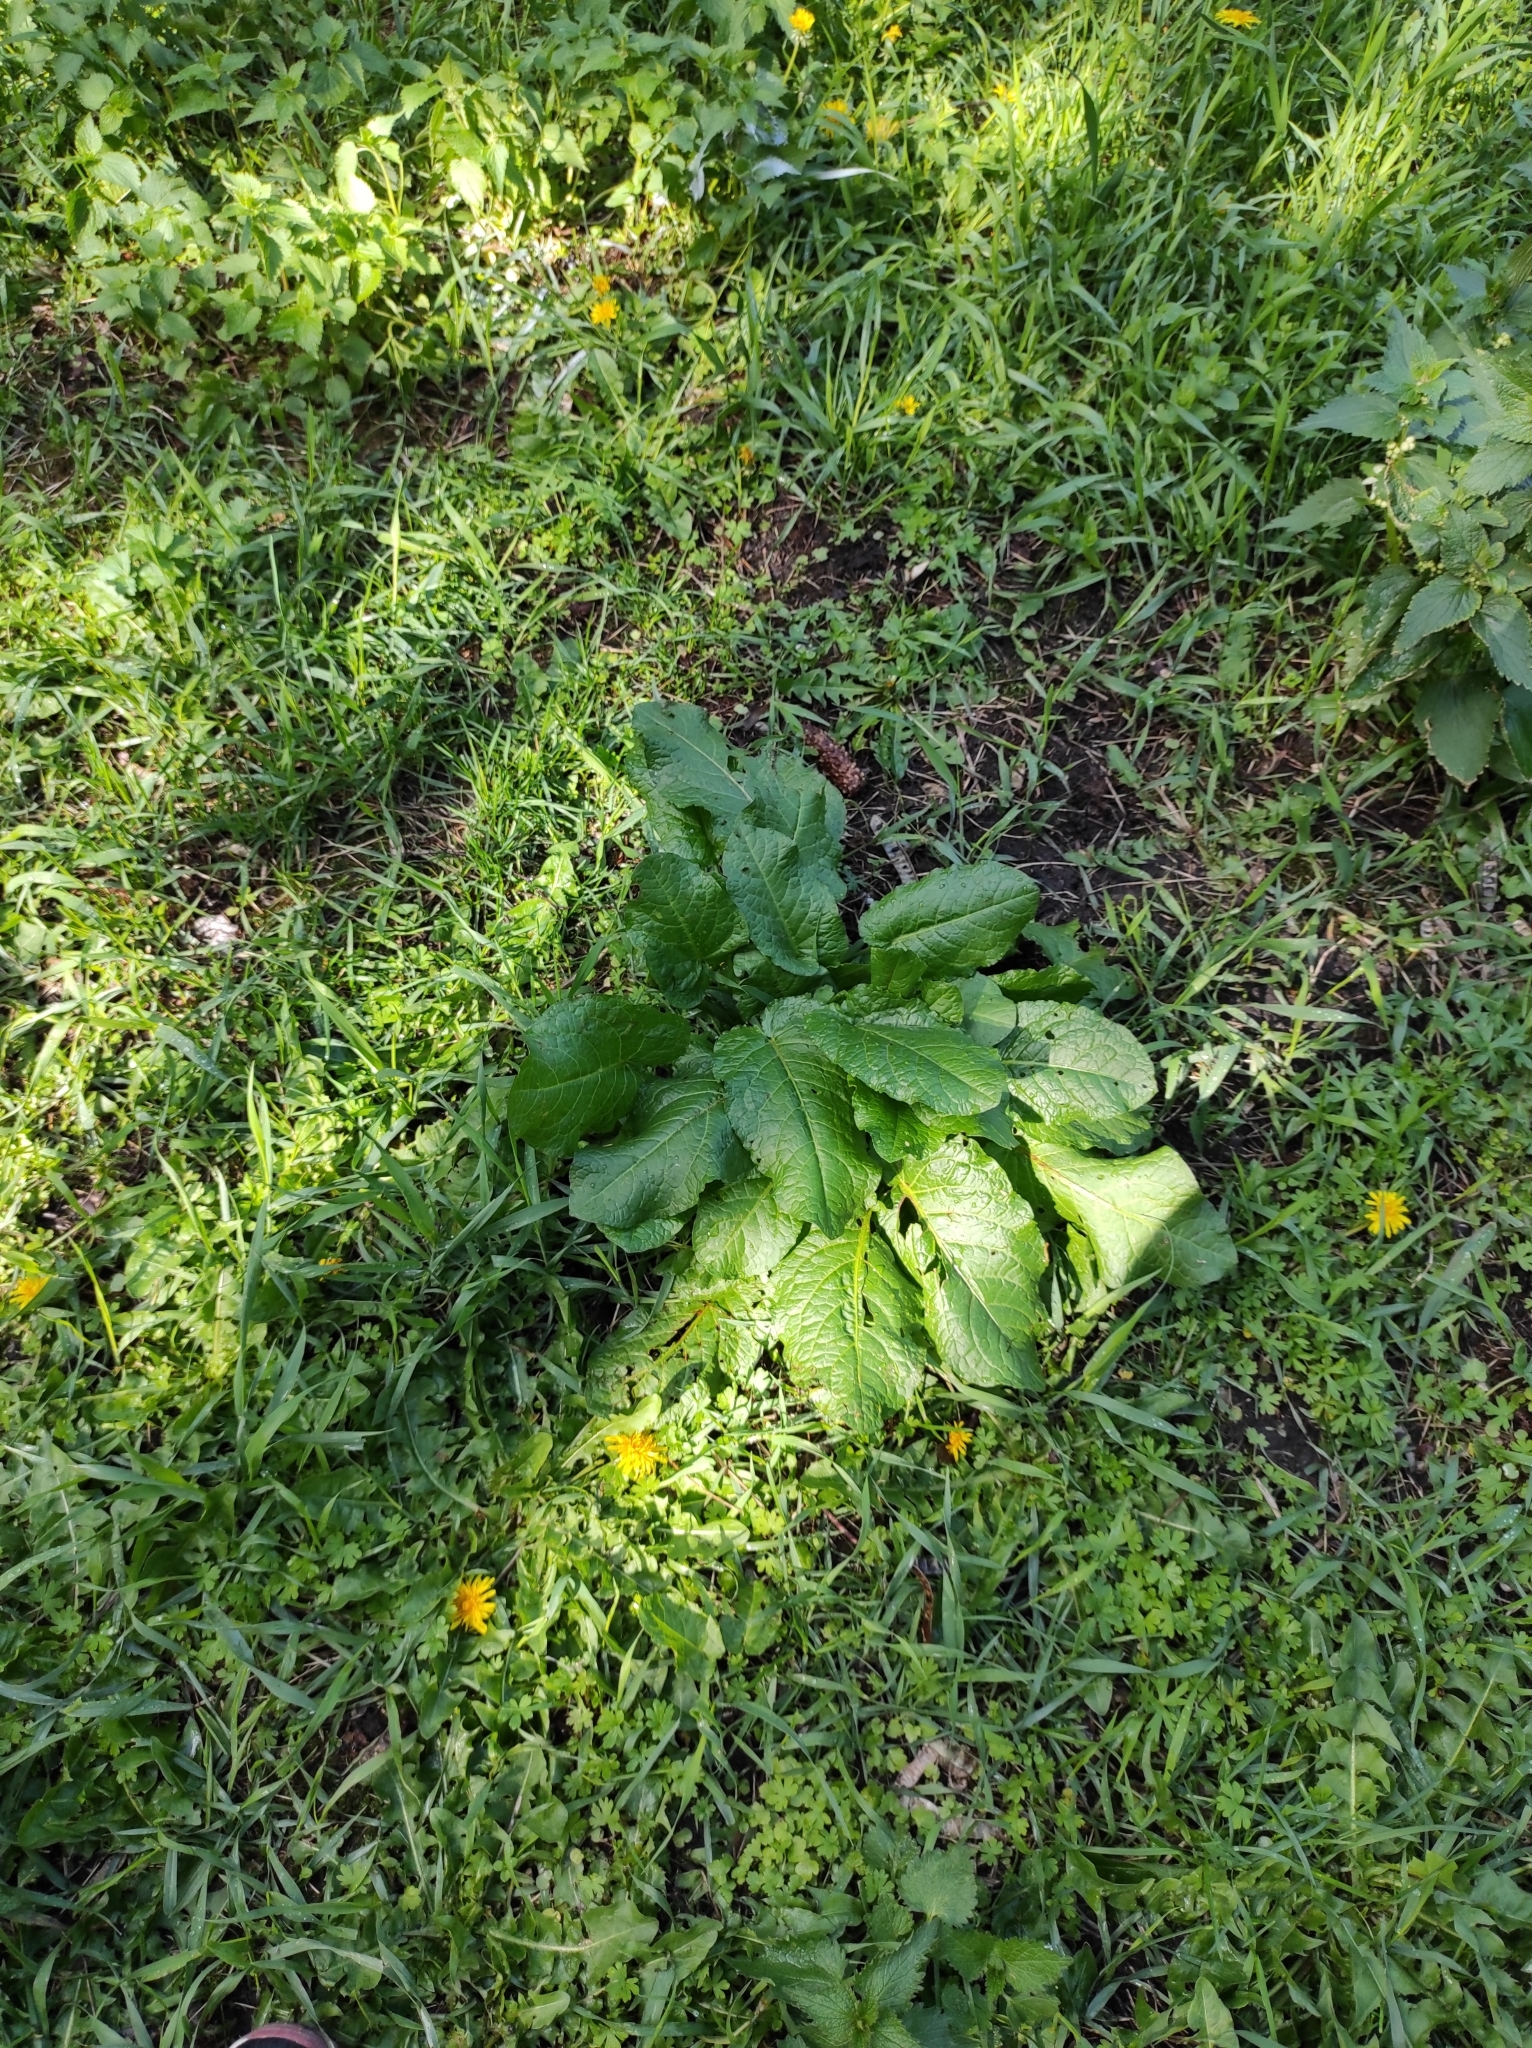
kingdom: Plantae
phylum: Tracheophyta
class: Magnoliopsida
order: Caryophyllales
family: Polygonaceae
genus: Rumex
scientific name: Rumex obtusifolius
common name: Bitter dock
